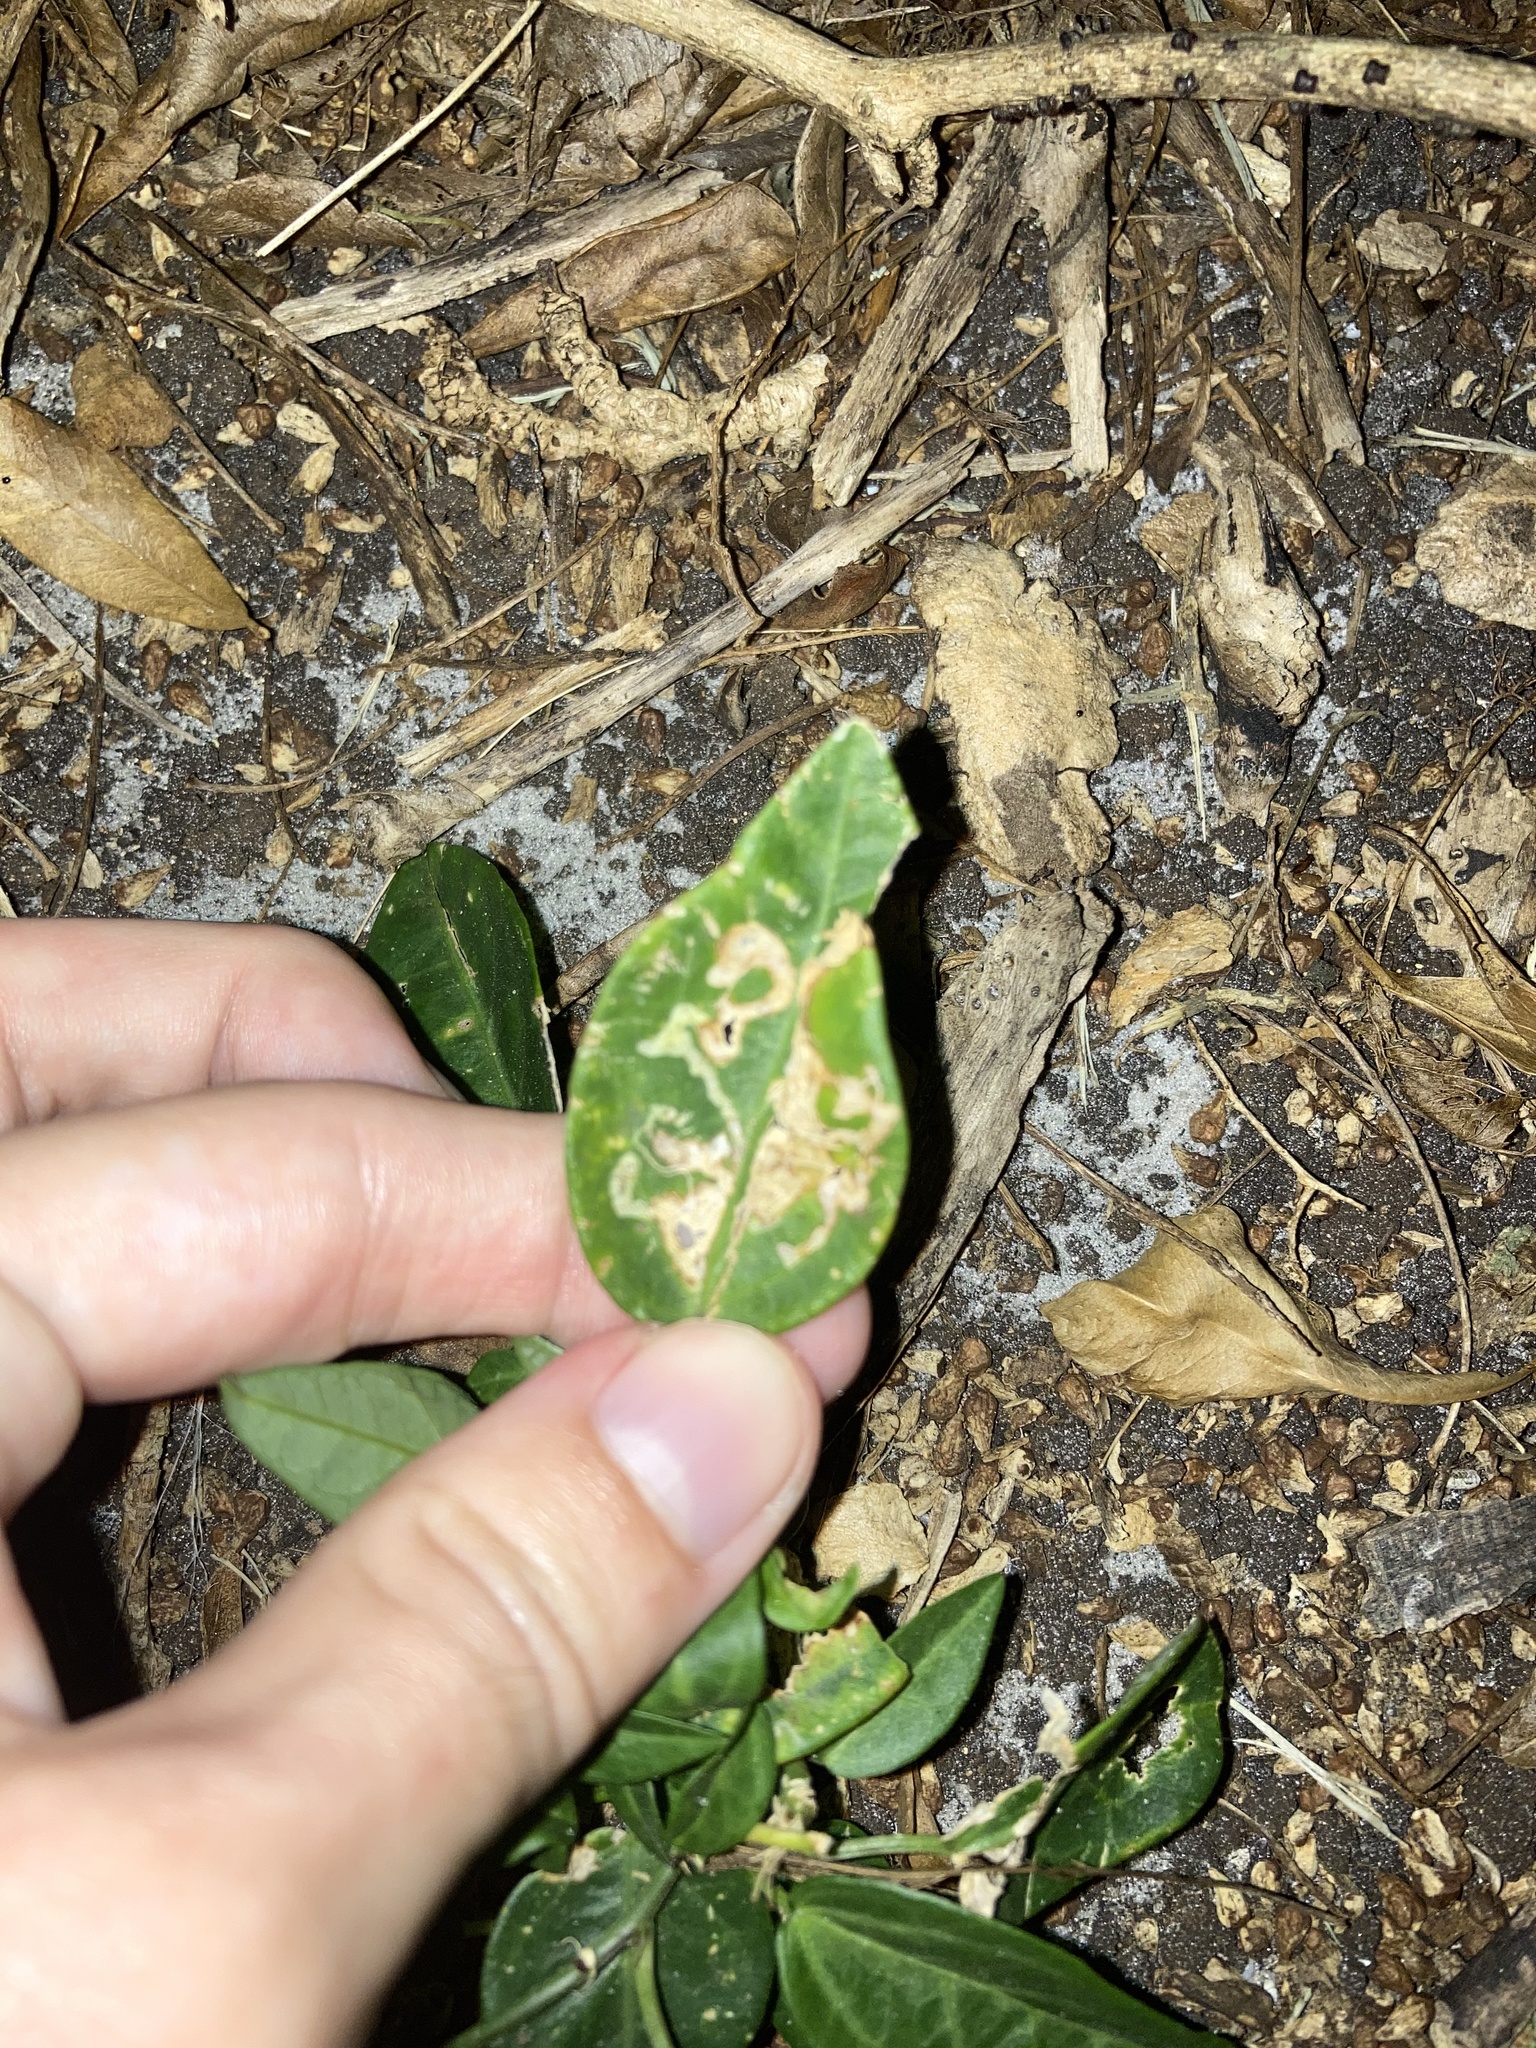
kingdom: Plantae
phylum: Tracheophyta
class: Magnoliopsida
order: Malpighiales
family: Passifloraceae
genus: Passiflora
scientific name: Passiflora pallida
